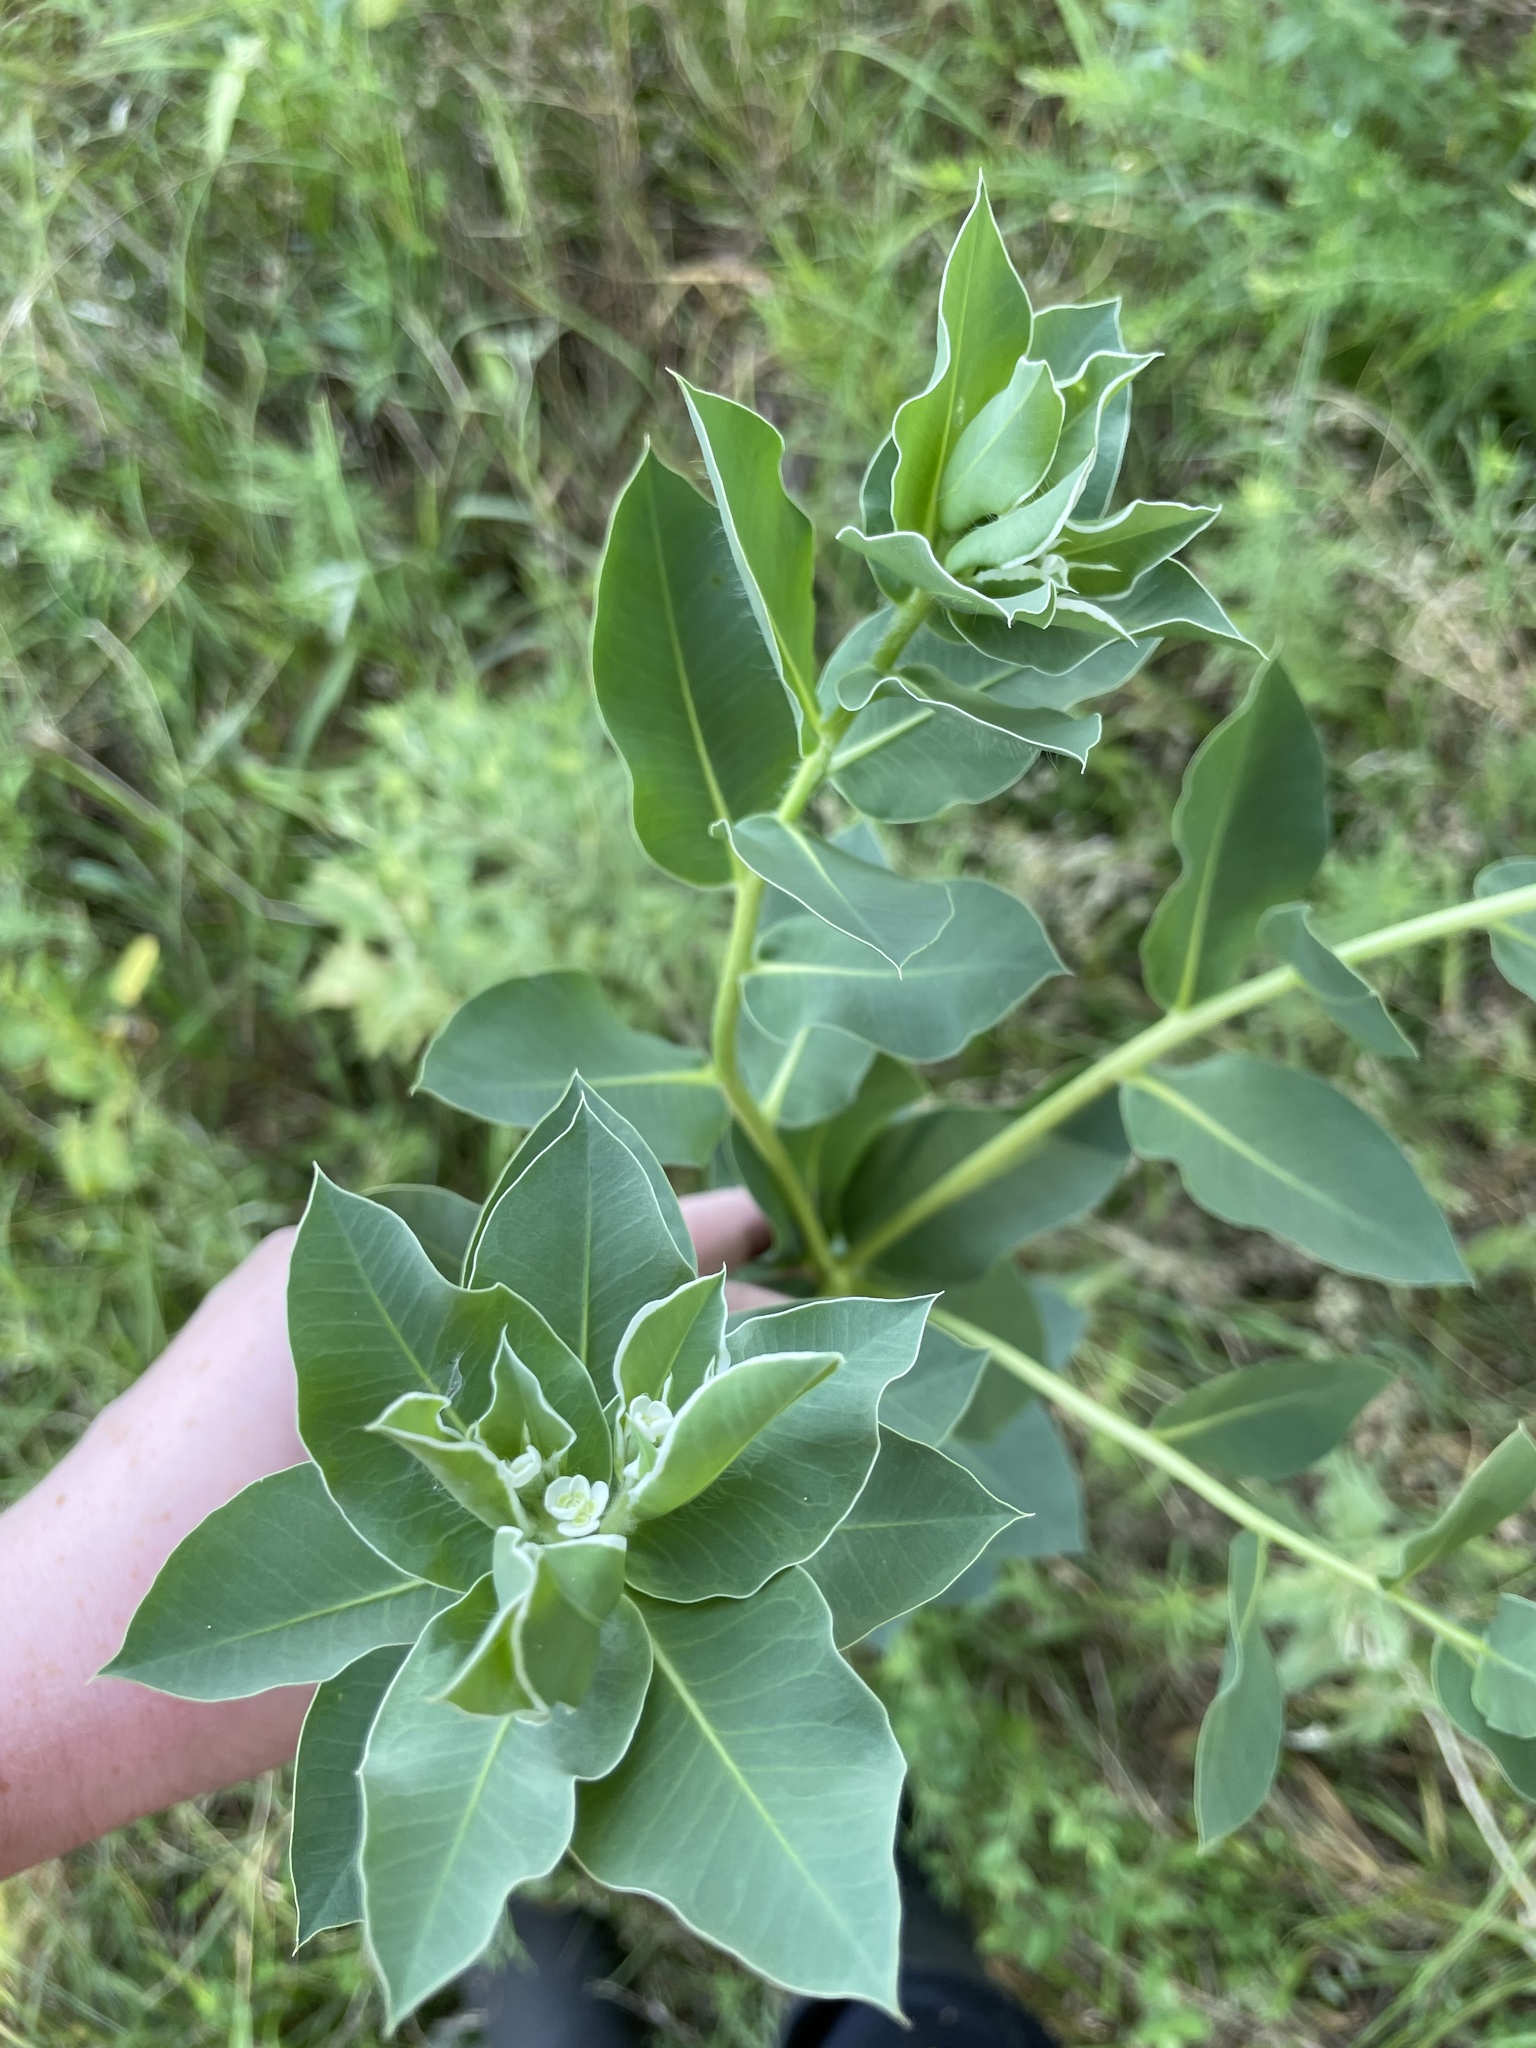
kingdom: Plantae
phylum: Tracheophyta
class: Magnoliopsida
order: Malpighiales
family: Euphorbiaceae
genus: Euphorbia
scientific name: Euphorbia marginata
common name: Ghostweed
